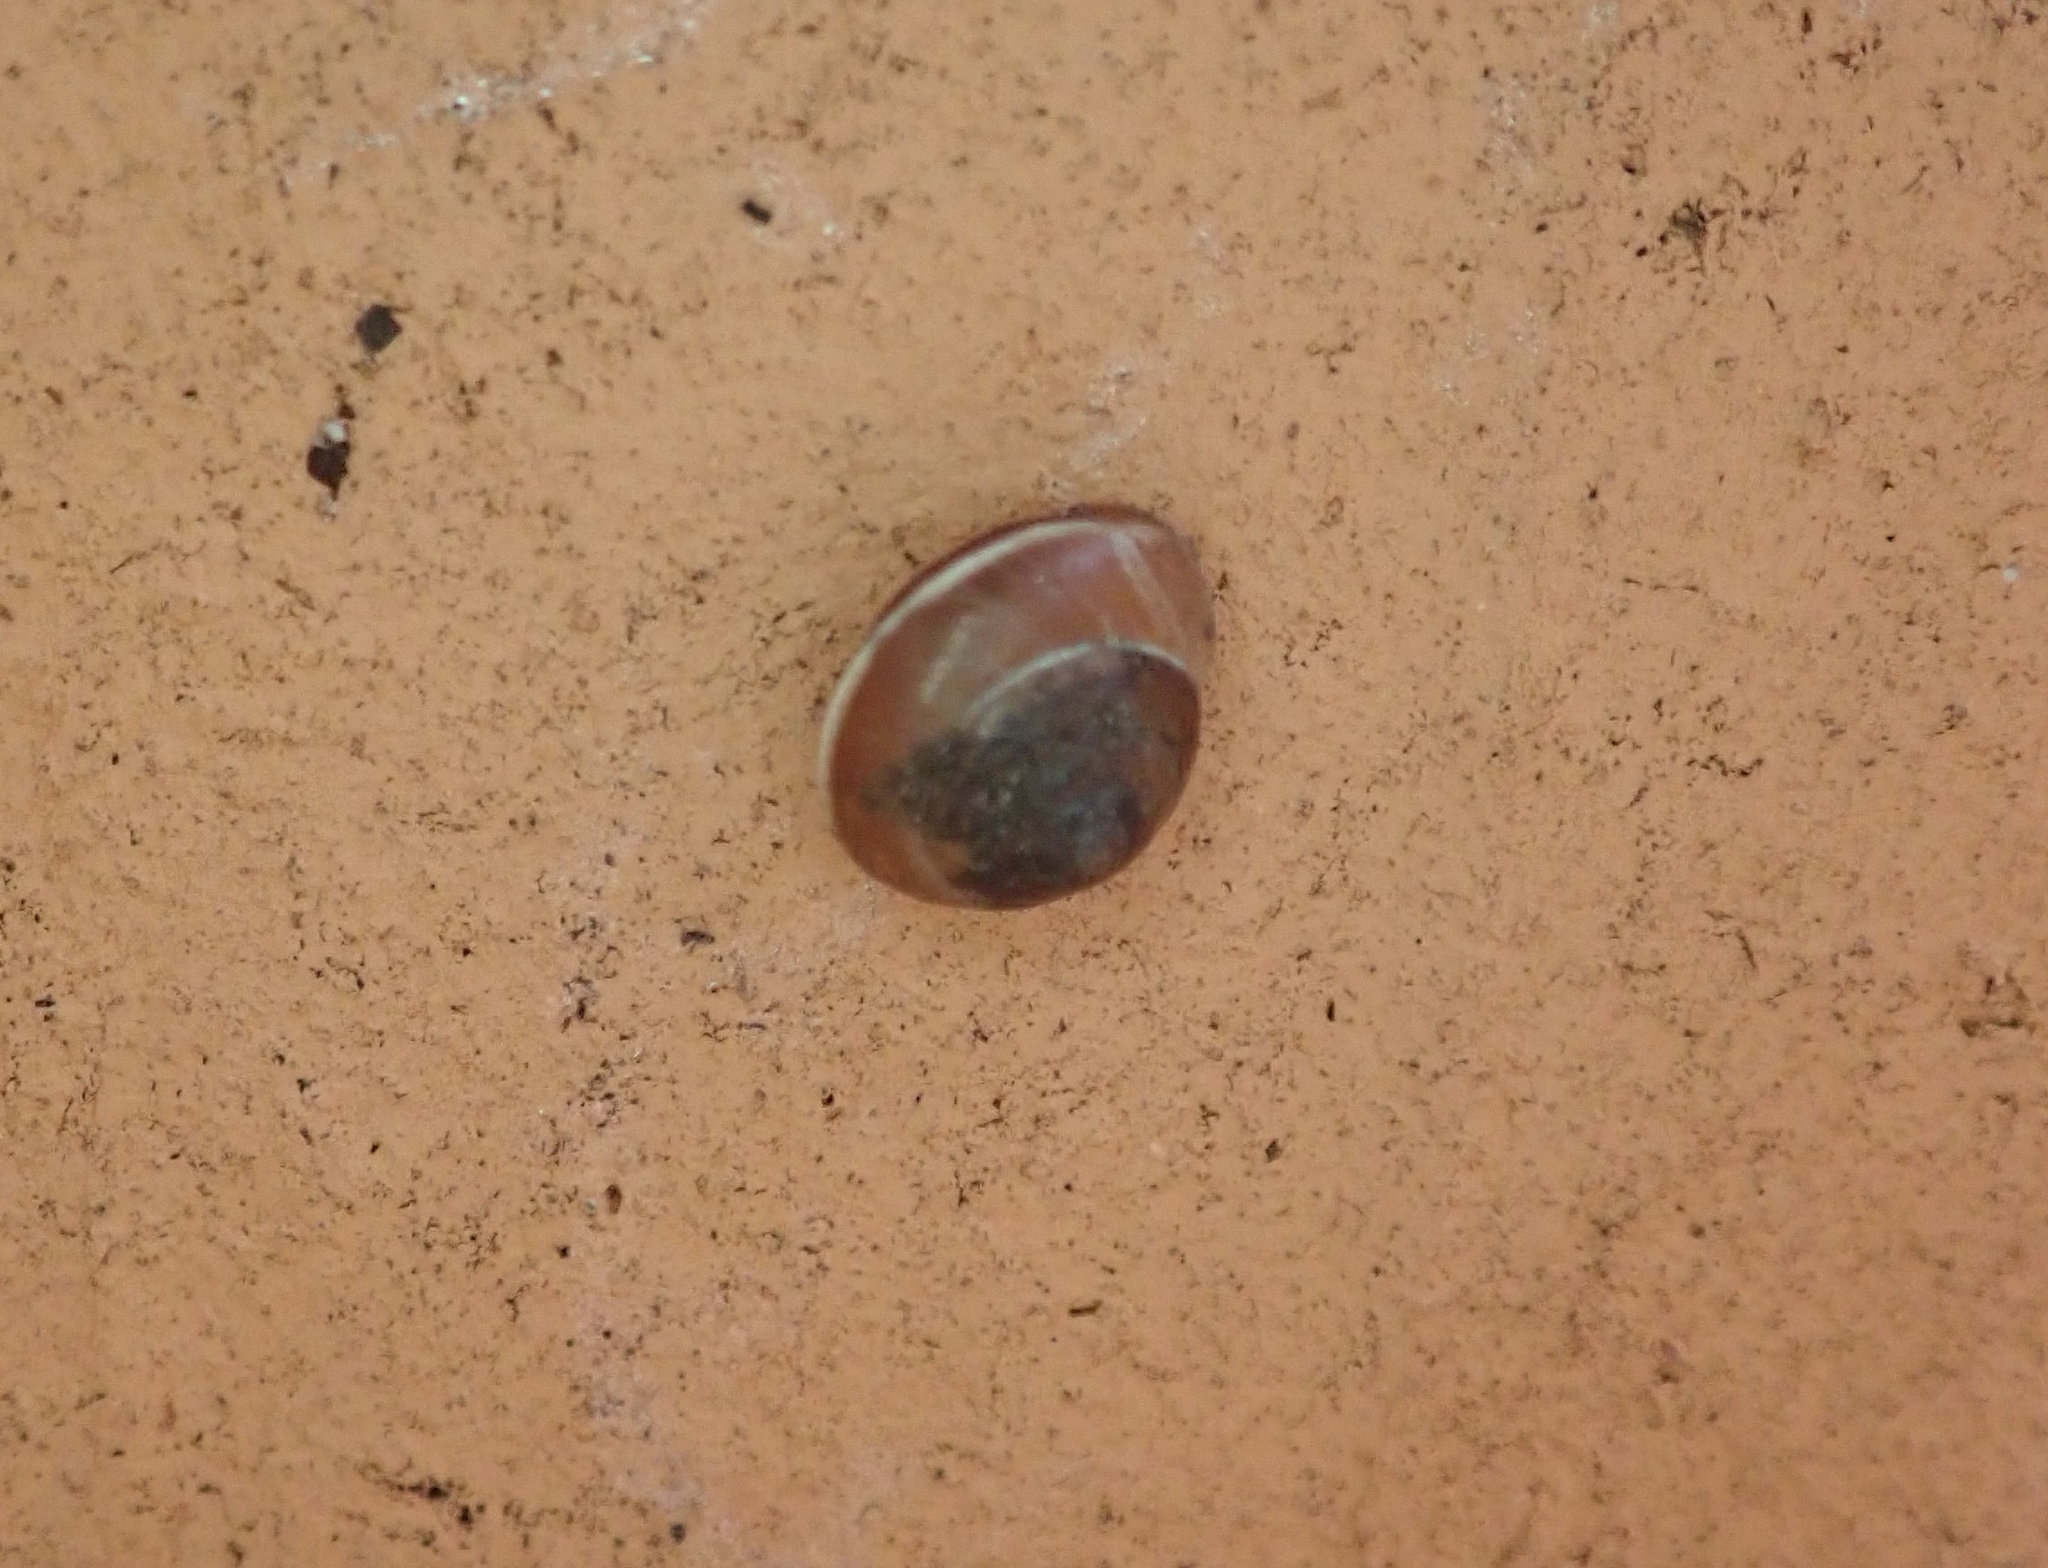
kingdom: Animalia
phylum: Mollusca
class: Gastropoda
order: Stylommatophora
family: Hygromiidae
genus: Hygromia
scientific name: Hygromia cinctella
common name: Girdled snail
